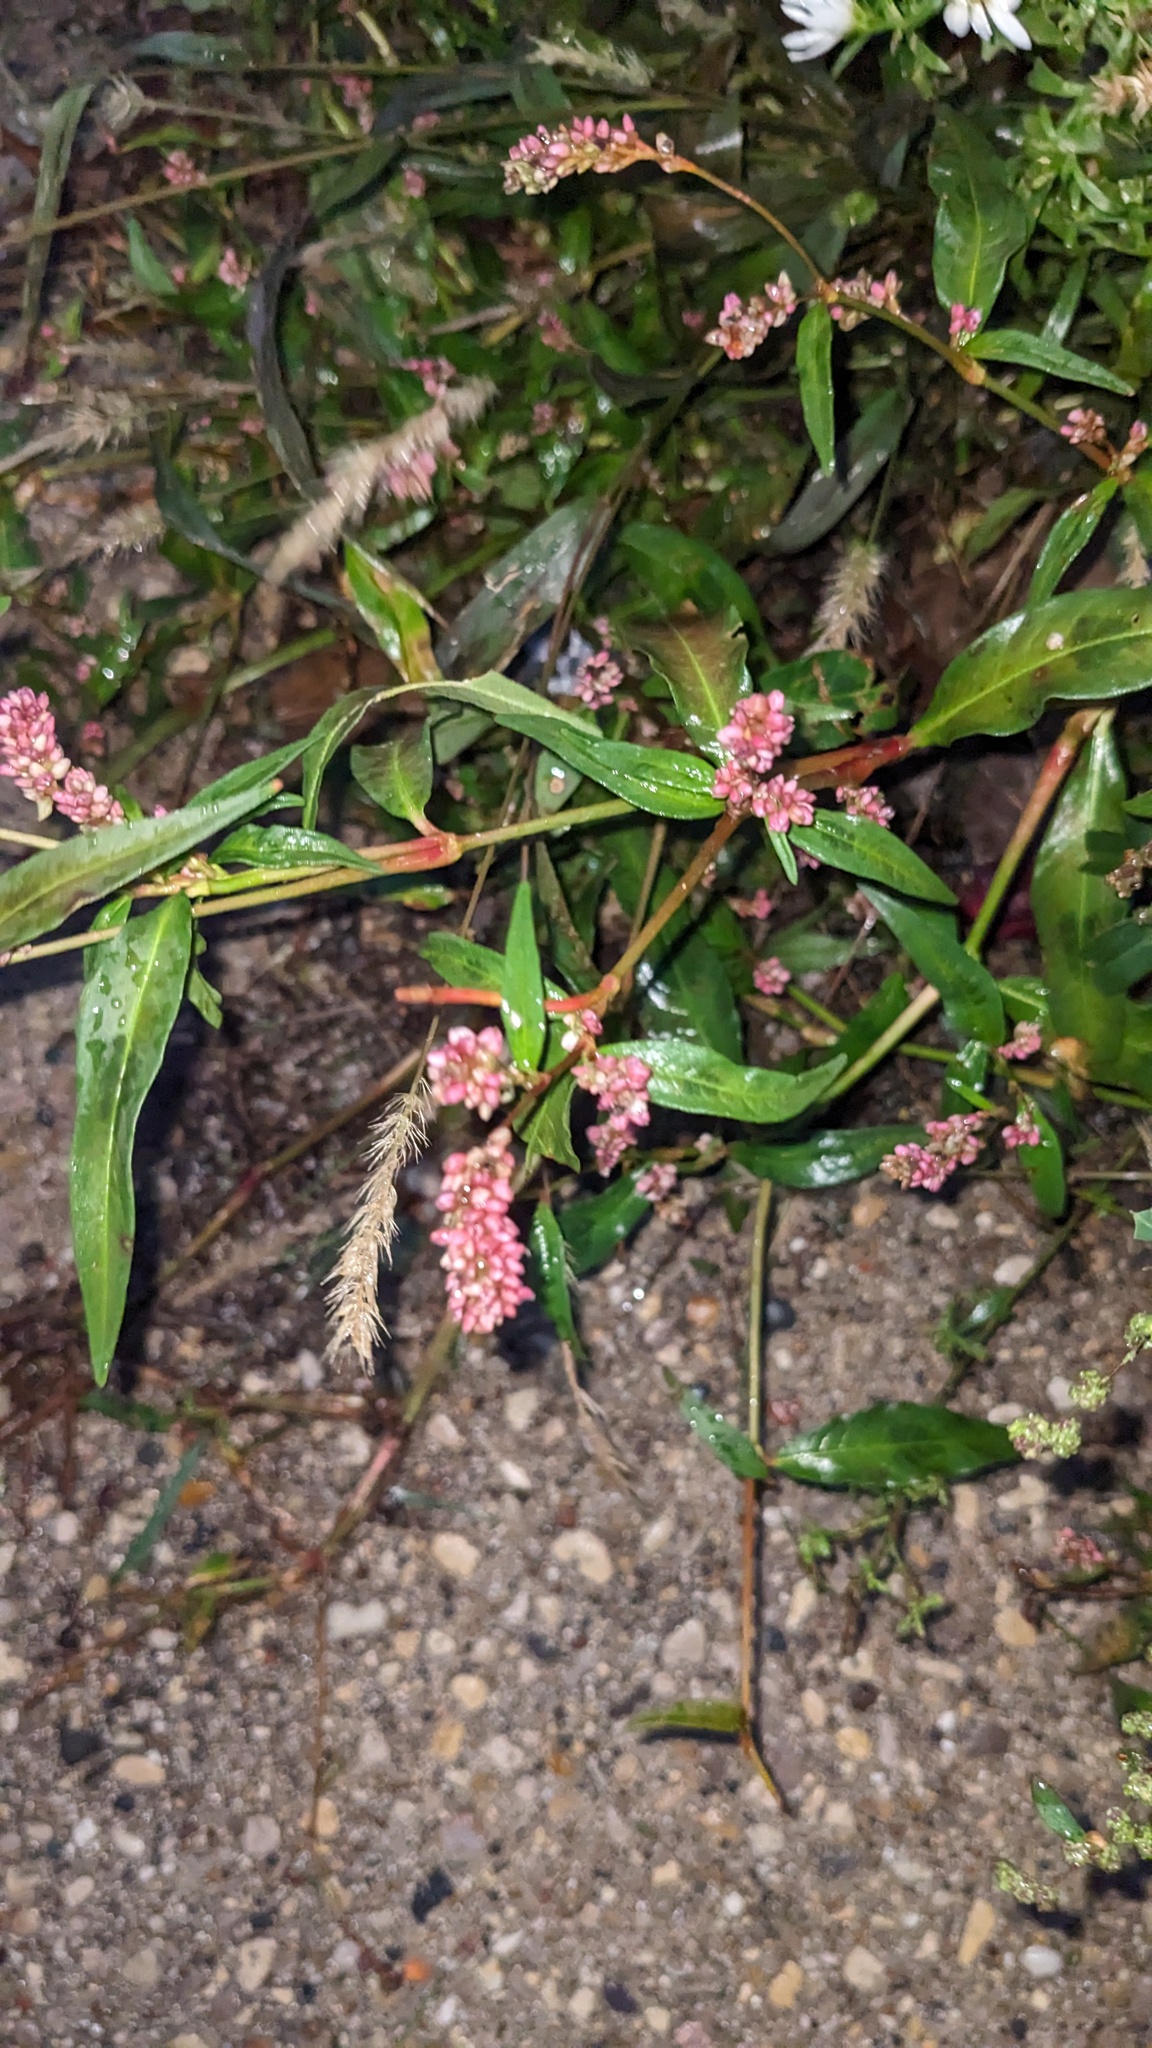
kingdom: Plantae
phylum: Tracheophyta
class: Magnoliopsida
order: Caryophyllales
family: Polygonaceae
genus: Persicaria
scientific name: Persicaria maculosa
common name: Redshank
